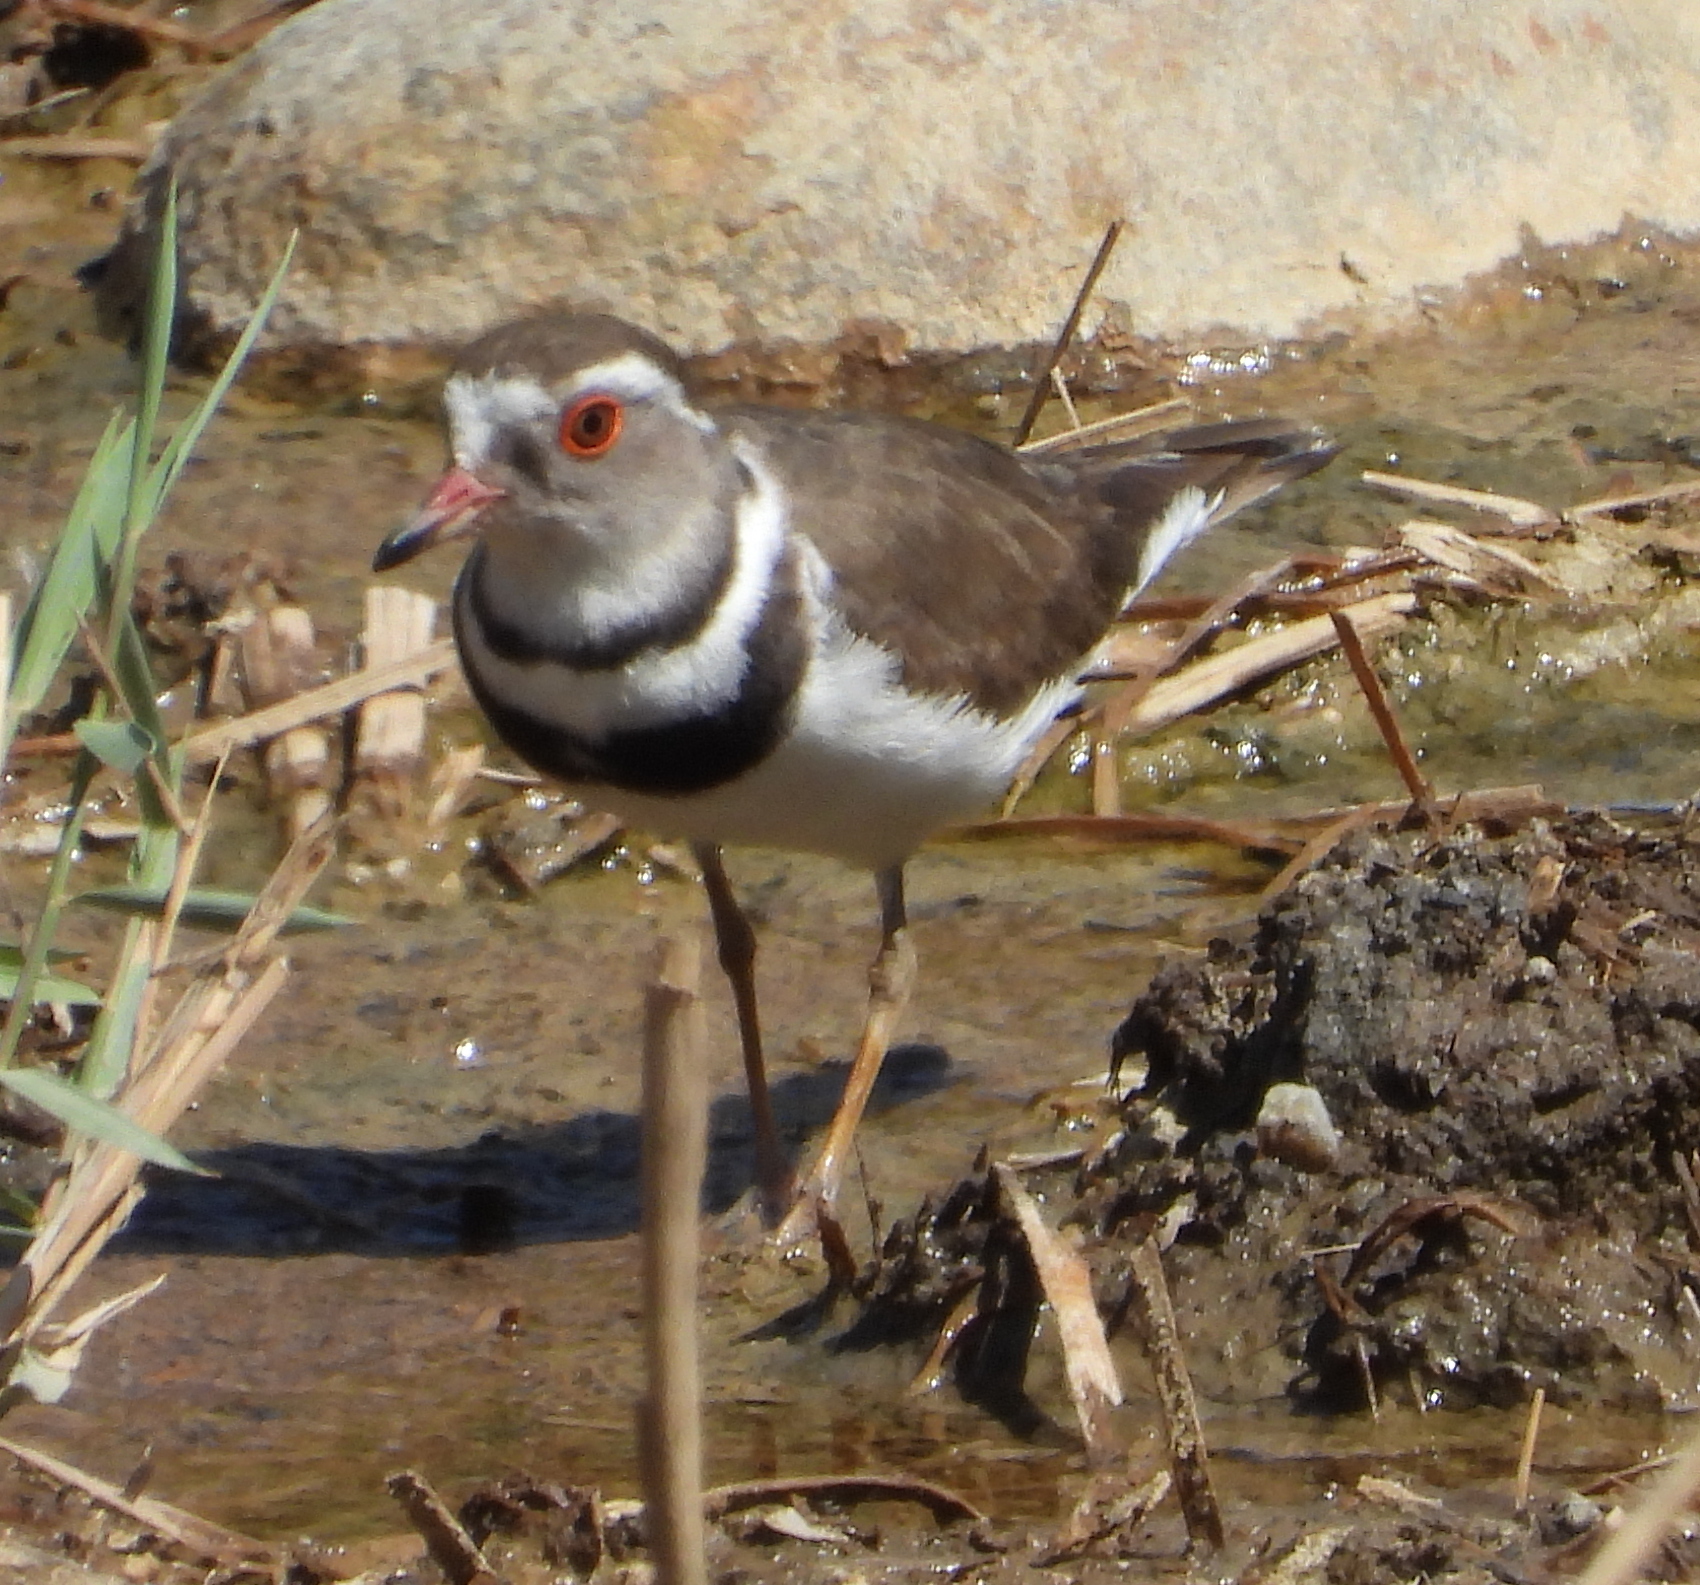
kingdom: Animalia
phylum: Chordata
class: Aves
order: Charadriiformes
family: Charadriidae
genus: Charadrius
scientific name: Charadrius tricollaris
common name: Three-banded plover
